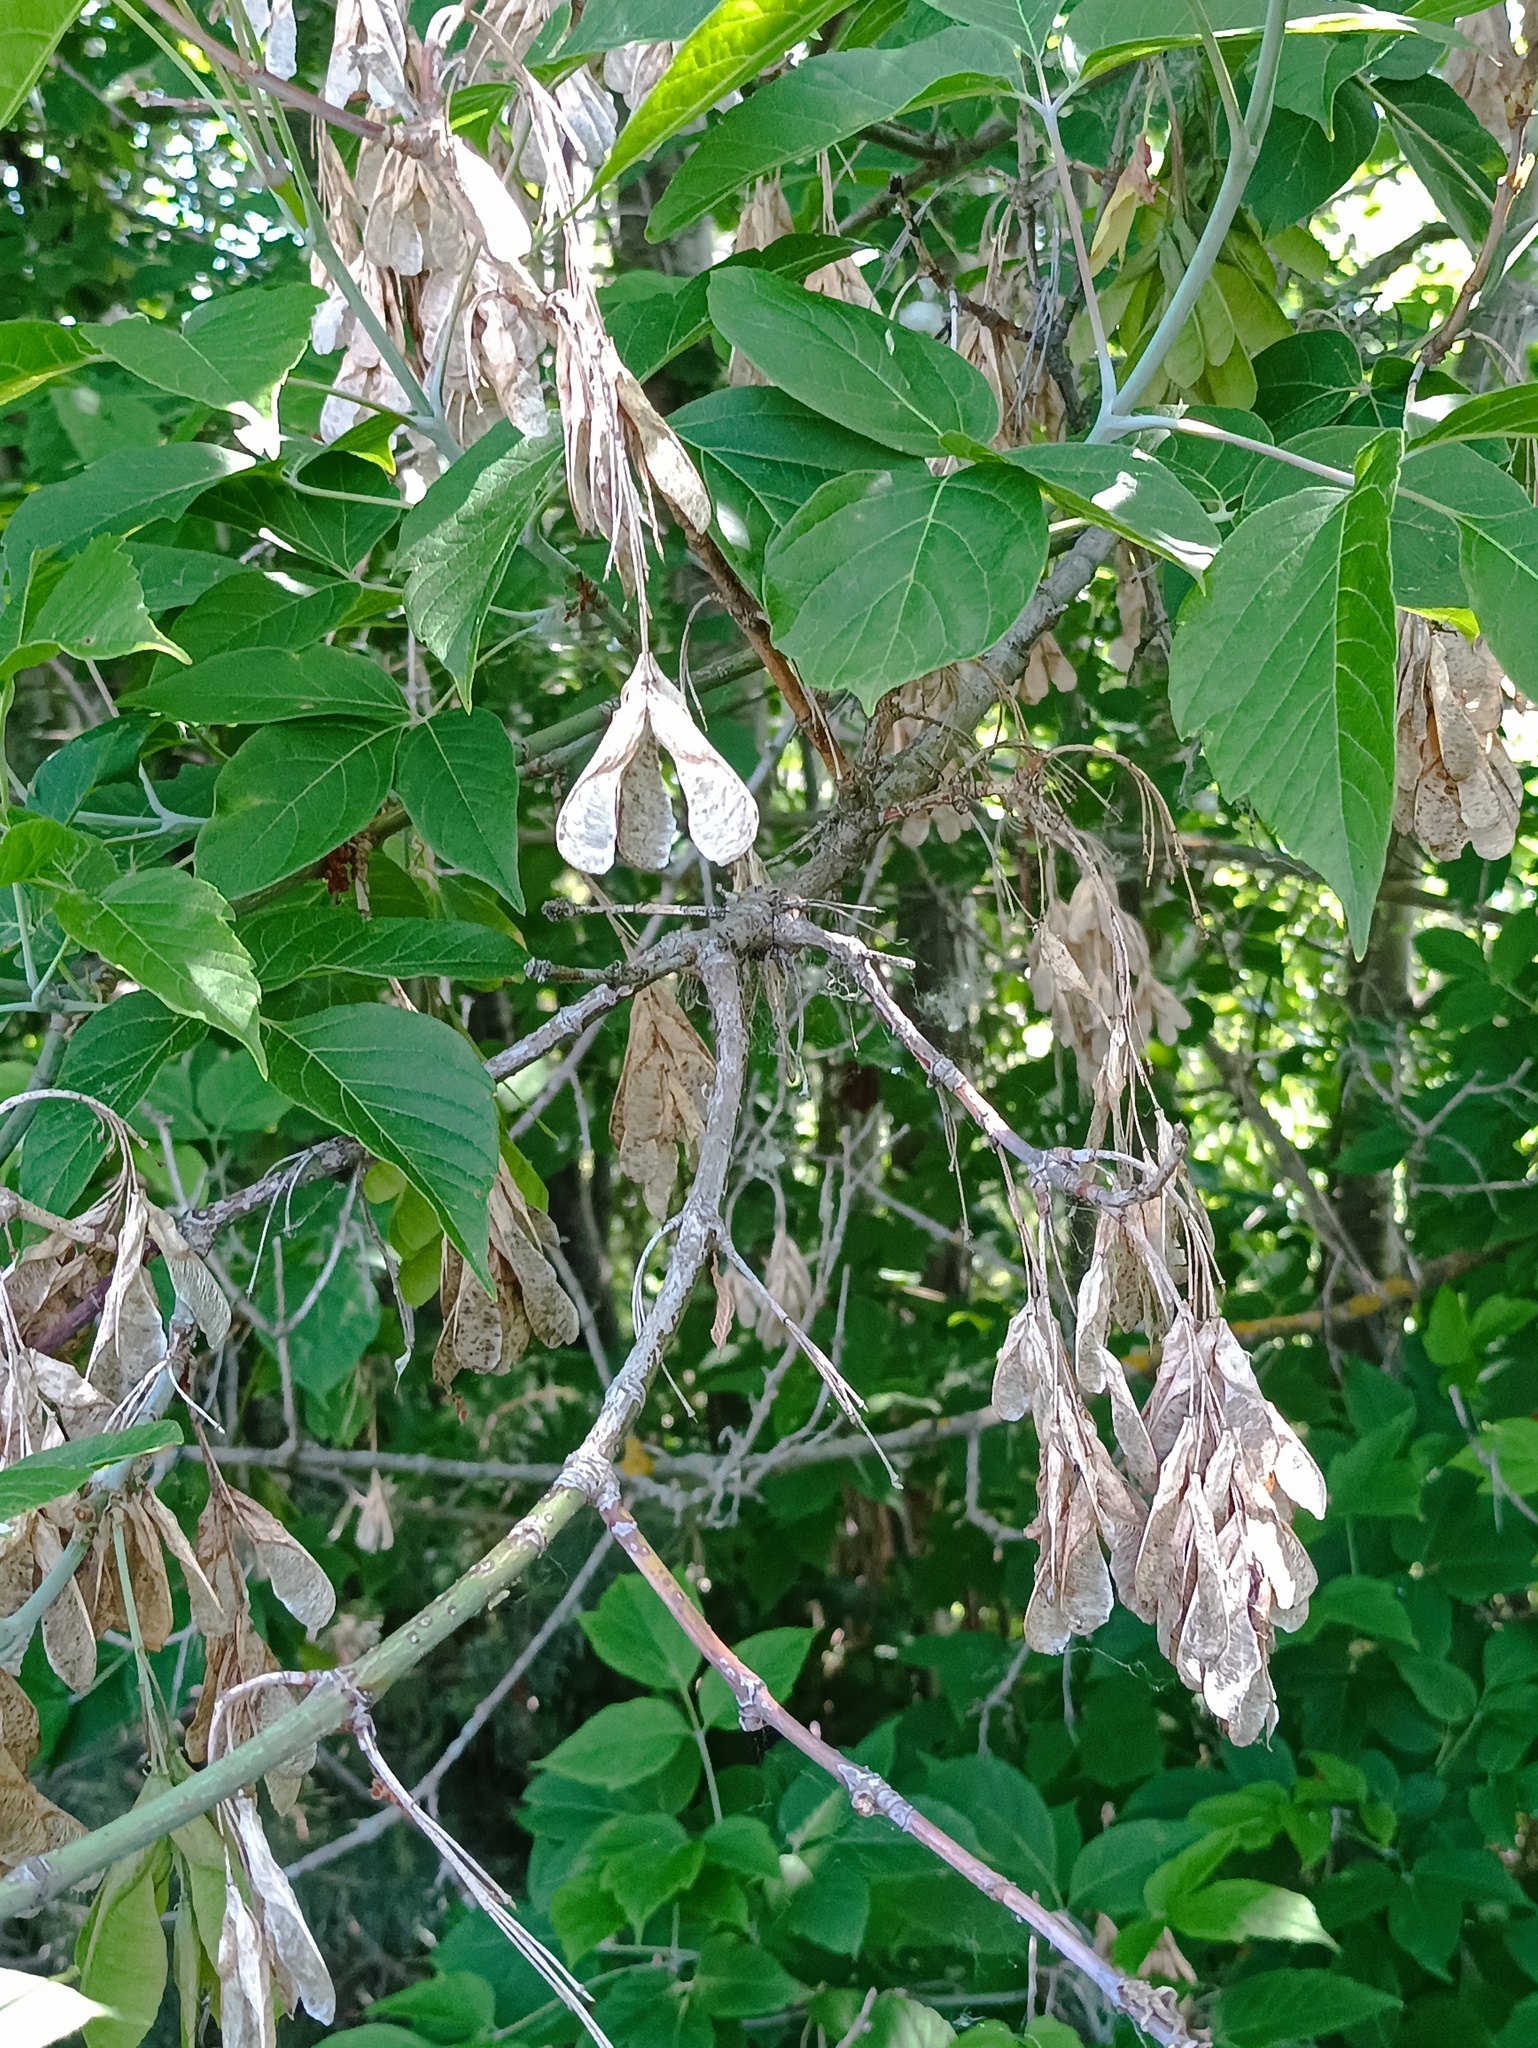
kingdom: Plantae
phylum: Tracheophyta
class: Magnoliopsida
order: Sapindales
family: Sapindaceae
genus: Acer
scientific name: Acer negundo
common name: Ashleaf maple
